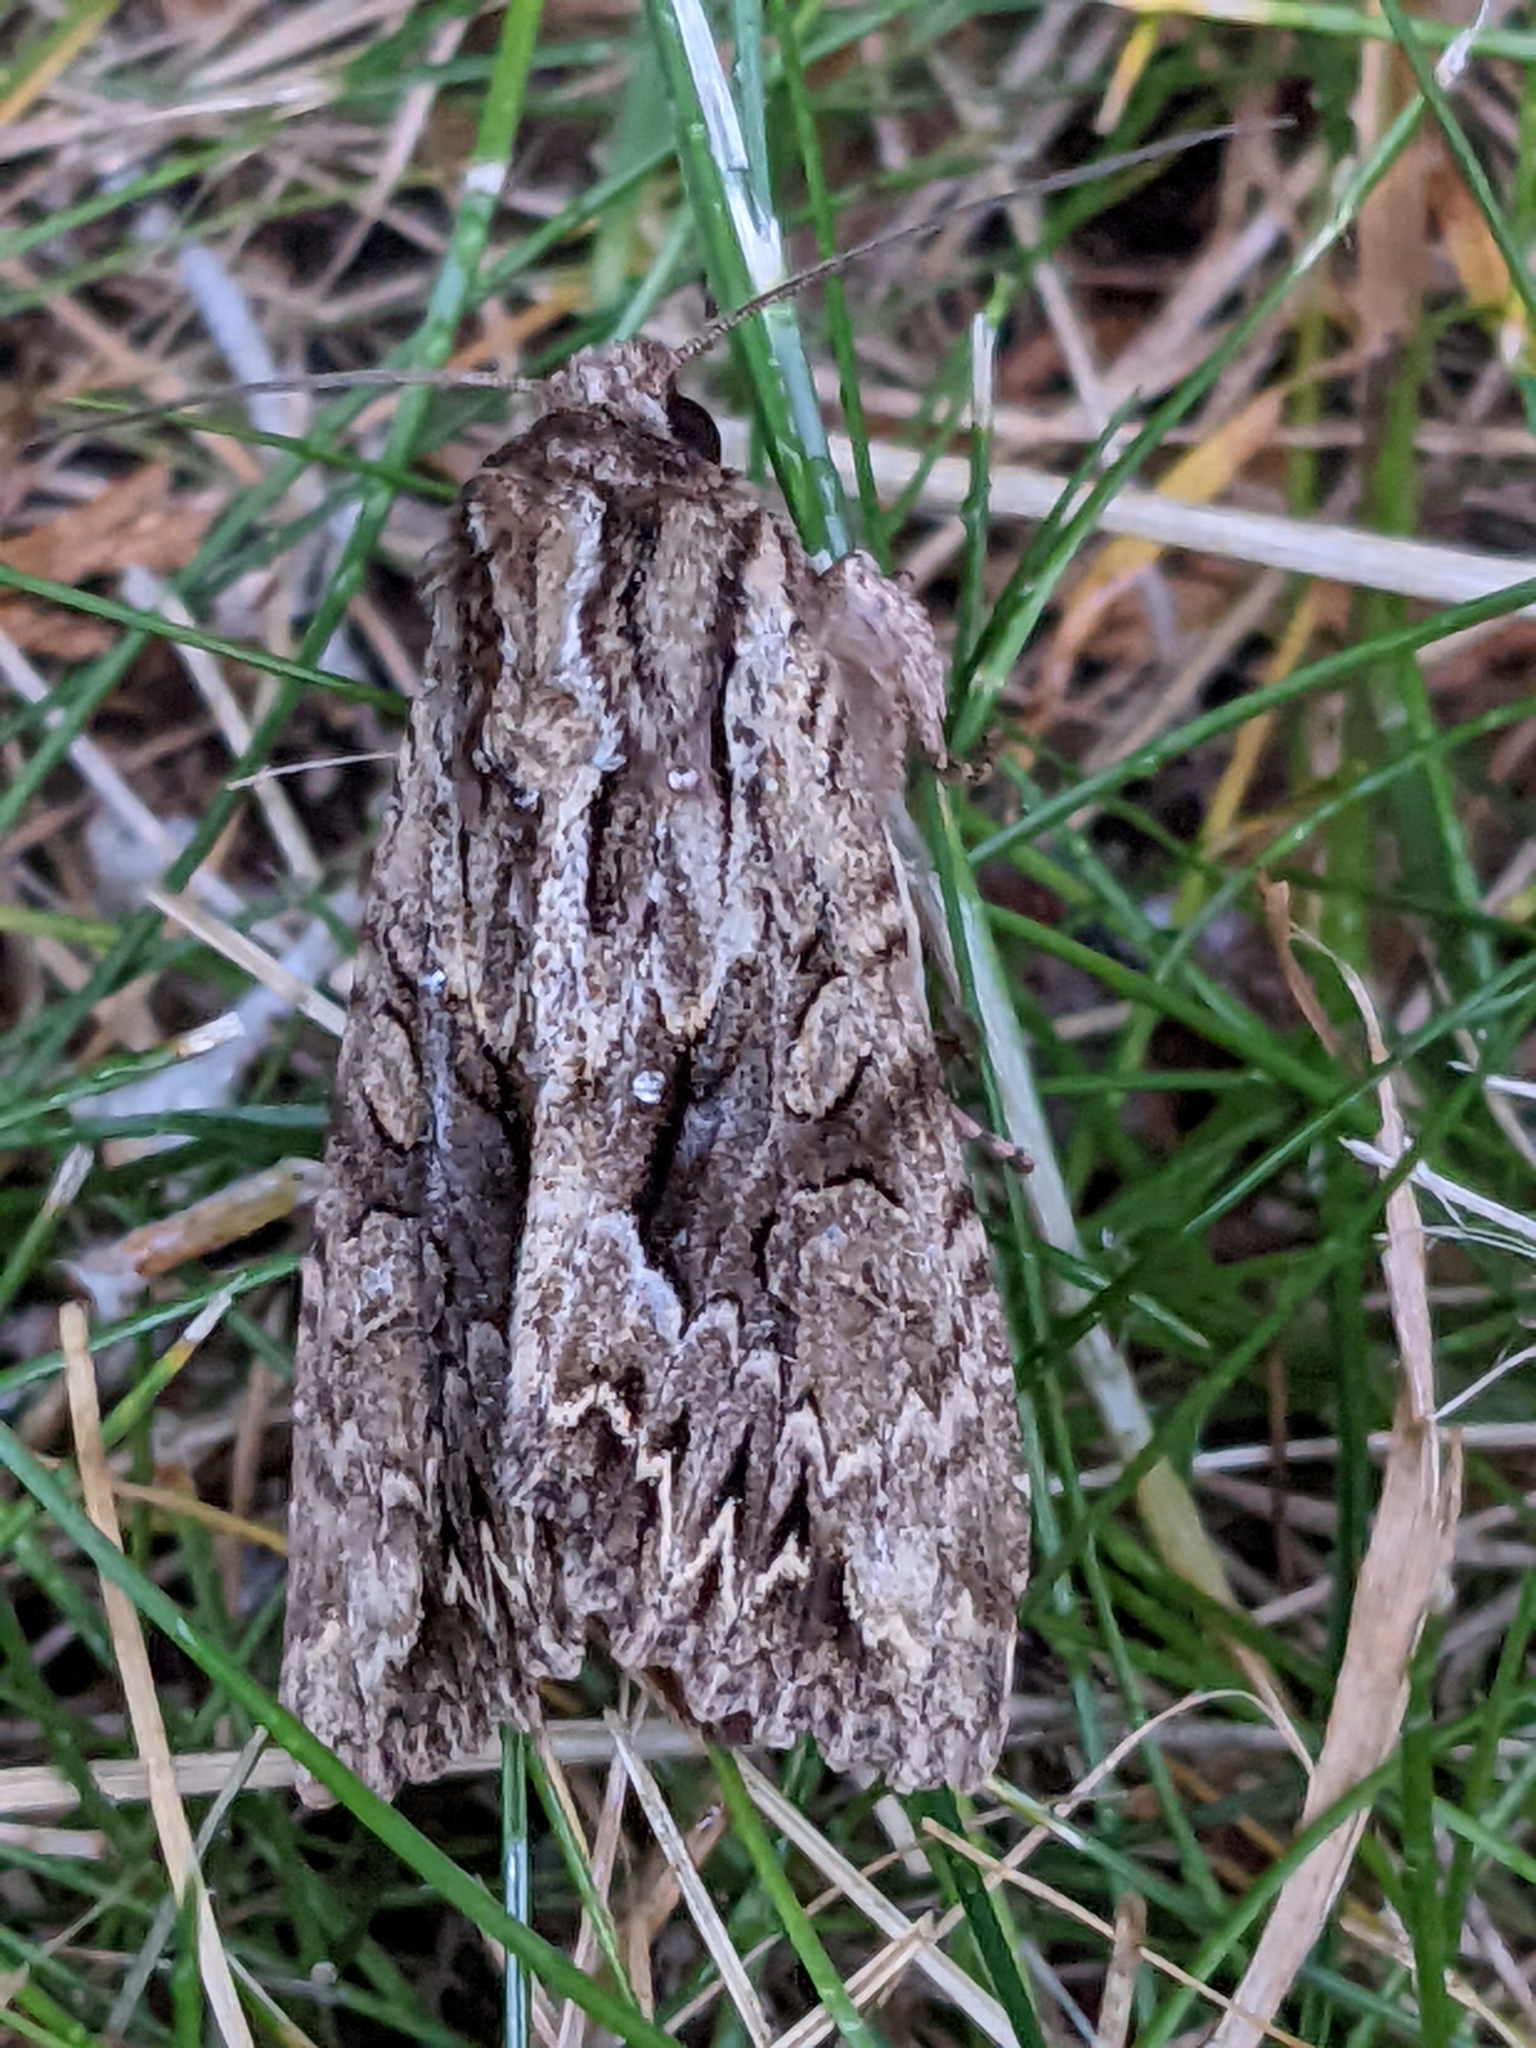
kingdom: Animalia
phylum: Arthropoda
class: Insecta
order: Lepidoptera
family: Noctuidae
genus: Apamea
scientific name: Apamea monoglypha
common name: Dark arches
